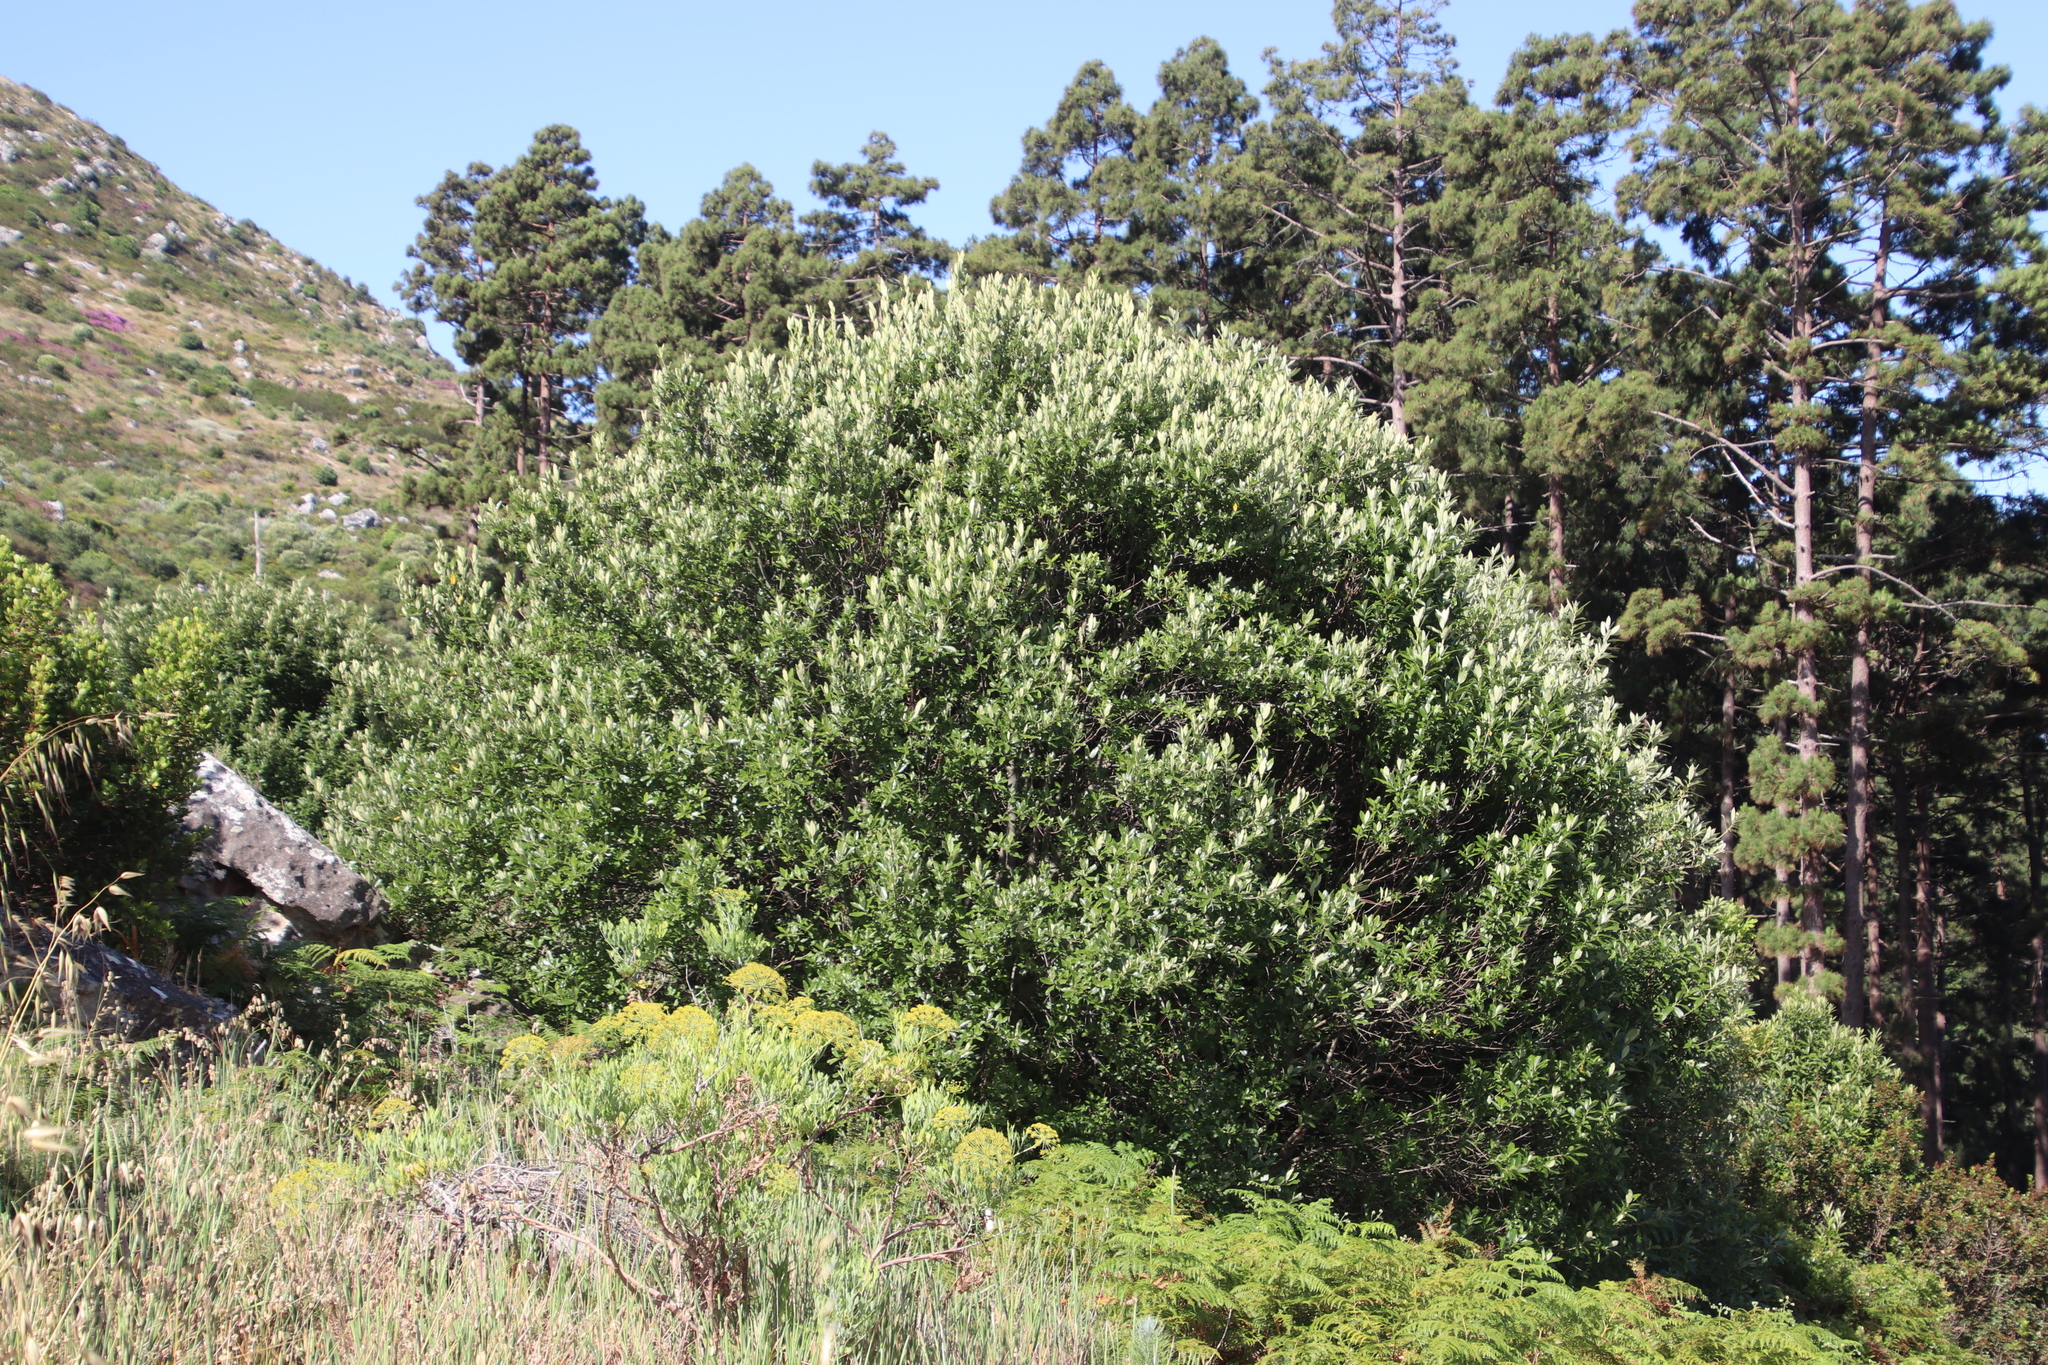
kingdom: Plantae
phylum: Tracheophyta
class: Magnoliopsida
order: Malpighiales
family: Achariaceae
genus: Kiggelaria
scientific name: Kiggelaria africana
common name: Wild peach
